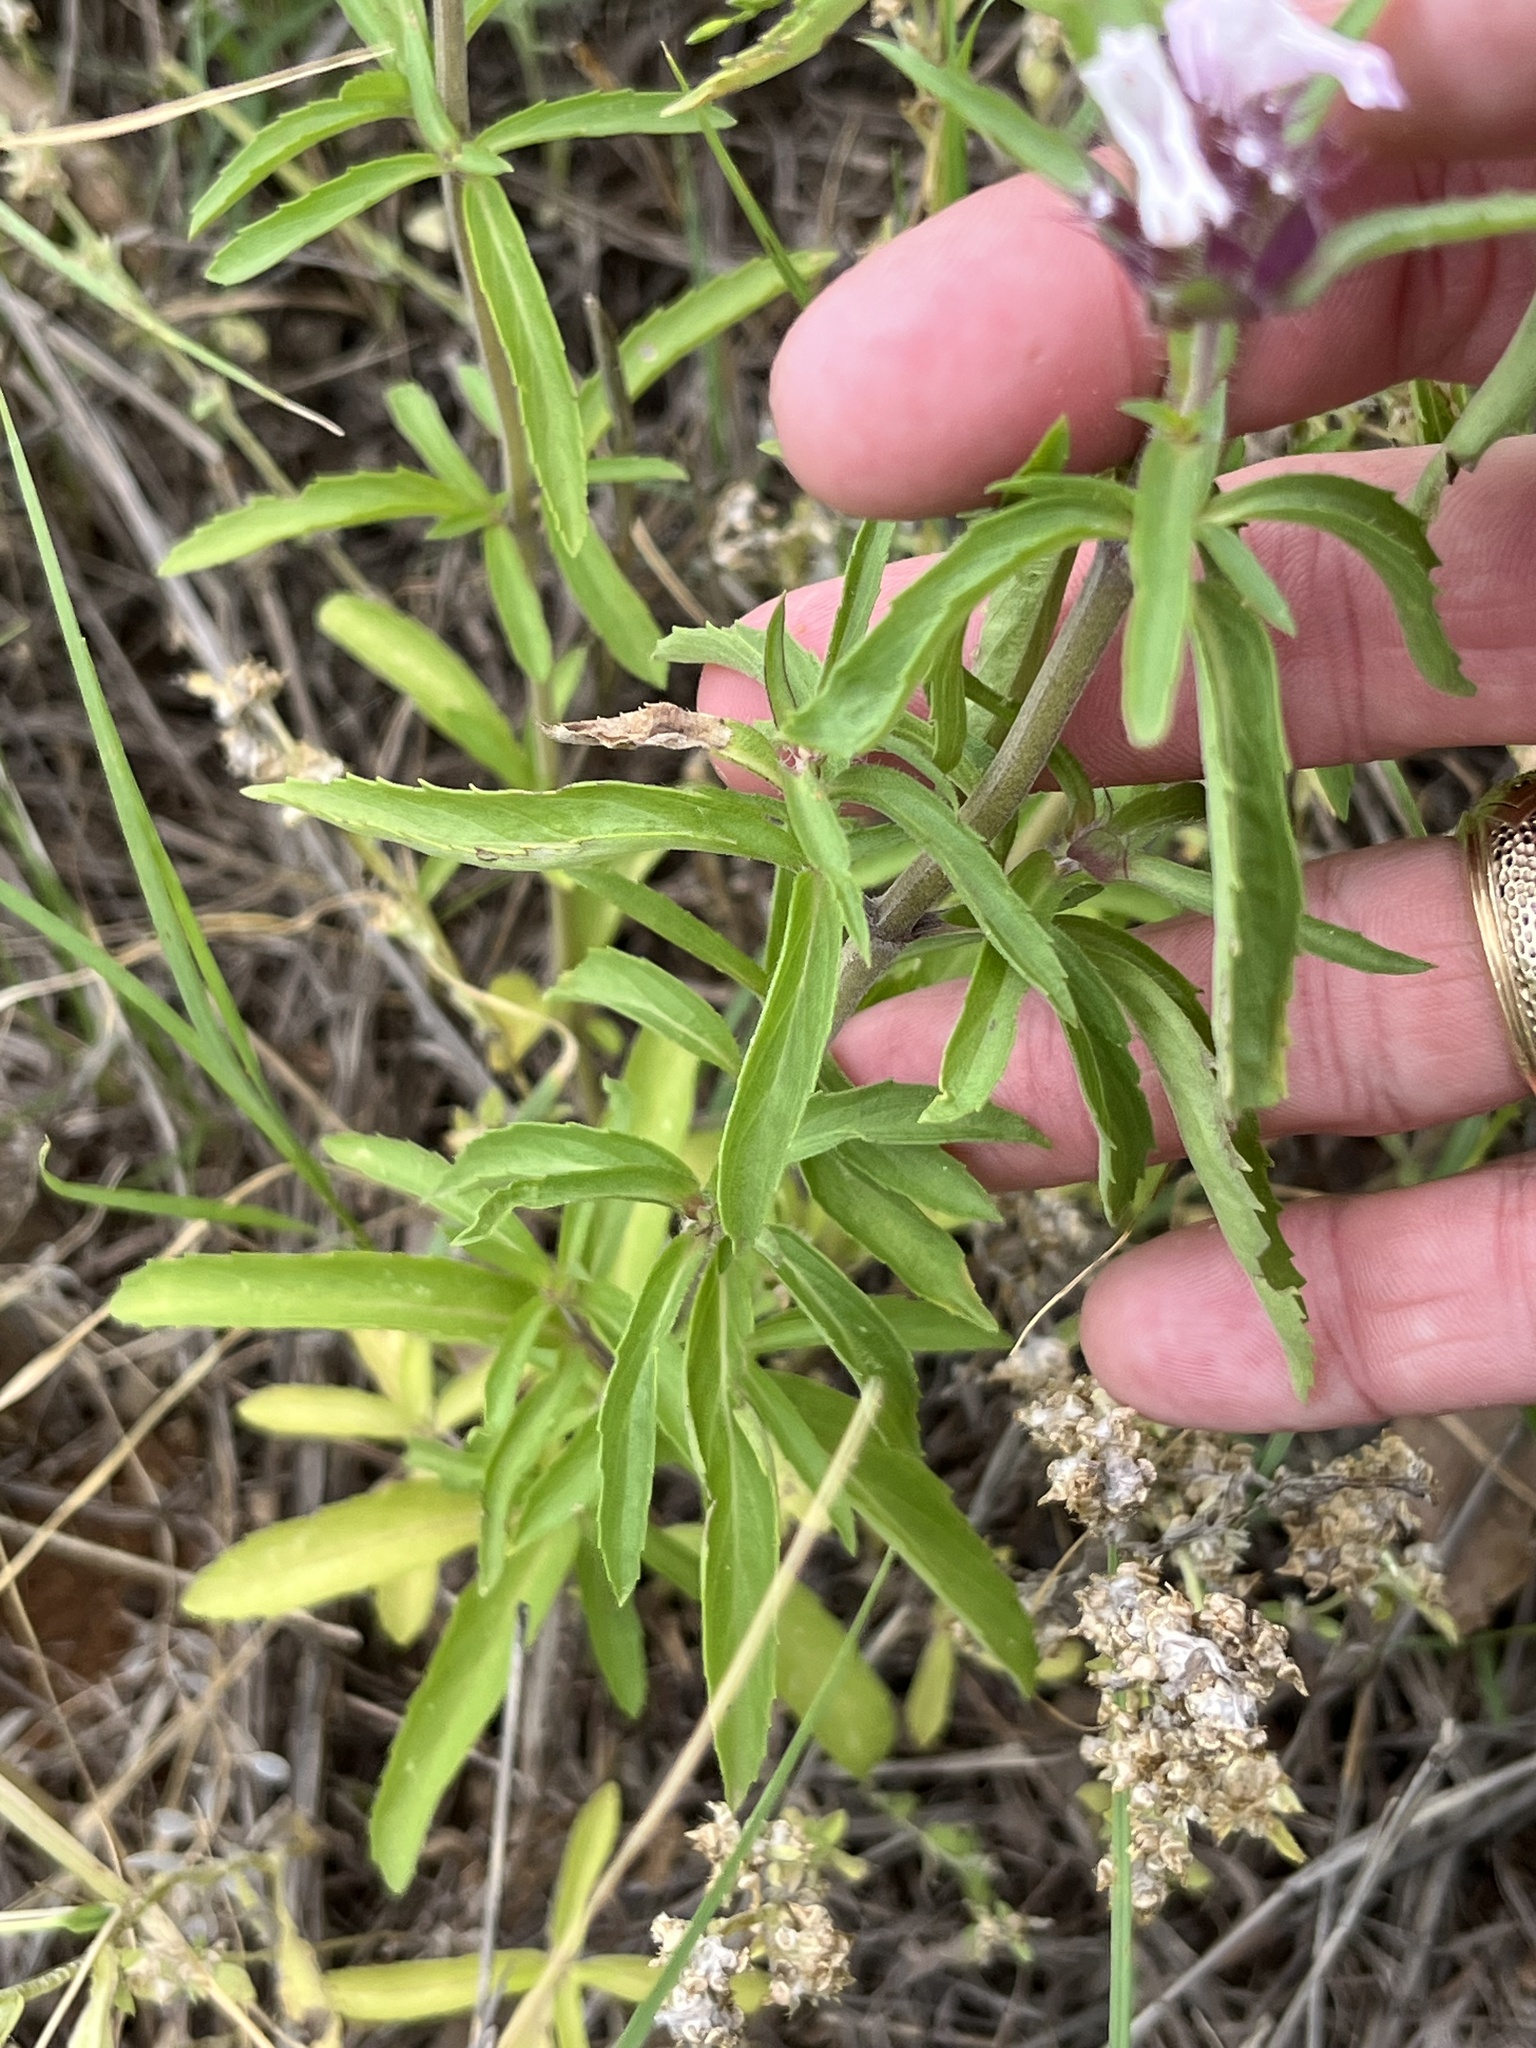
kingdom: Plantae
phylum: Tracheophyta
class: Magnoliopsida
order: Lamiales
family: Lamiaceae
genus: Monarda
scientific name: Monarda clinopodioides
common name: Basil beebalm
